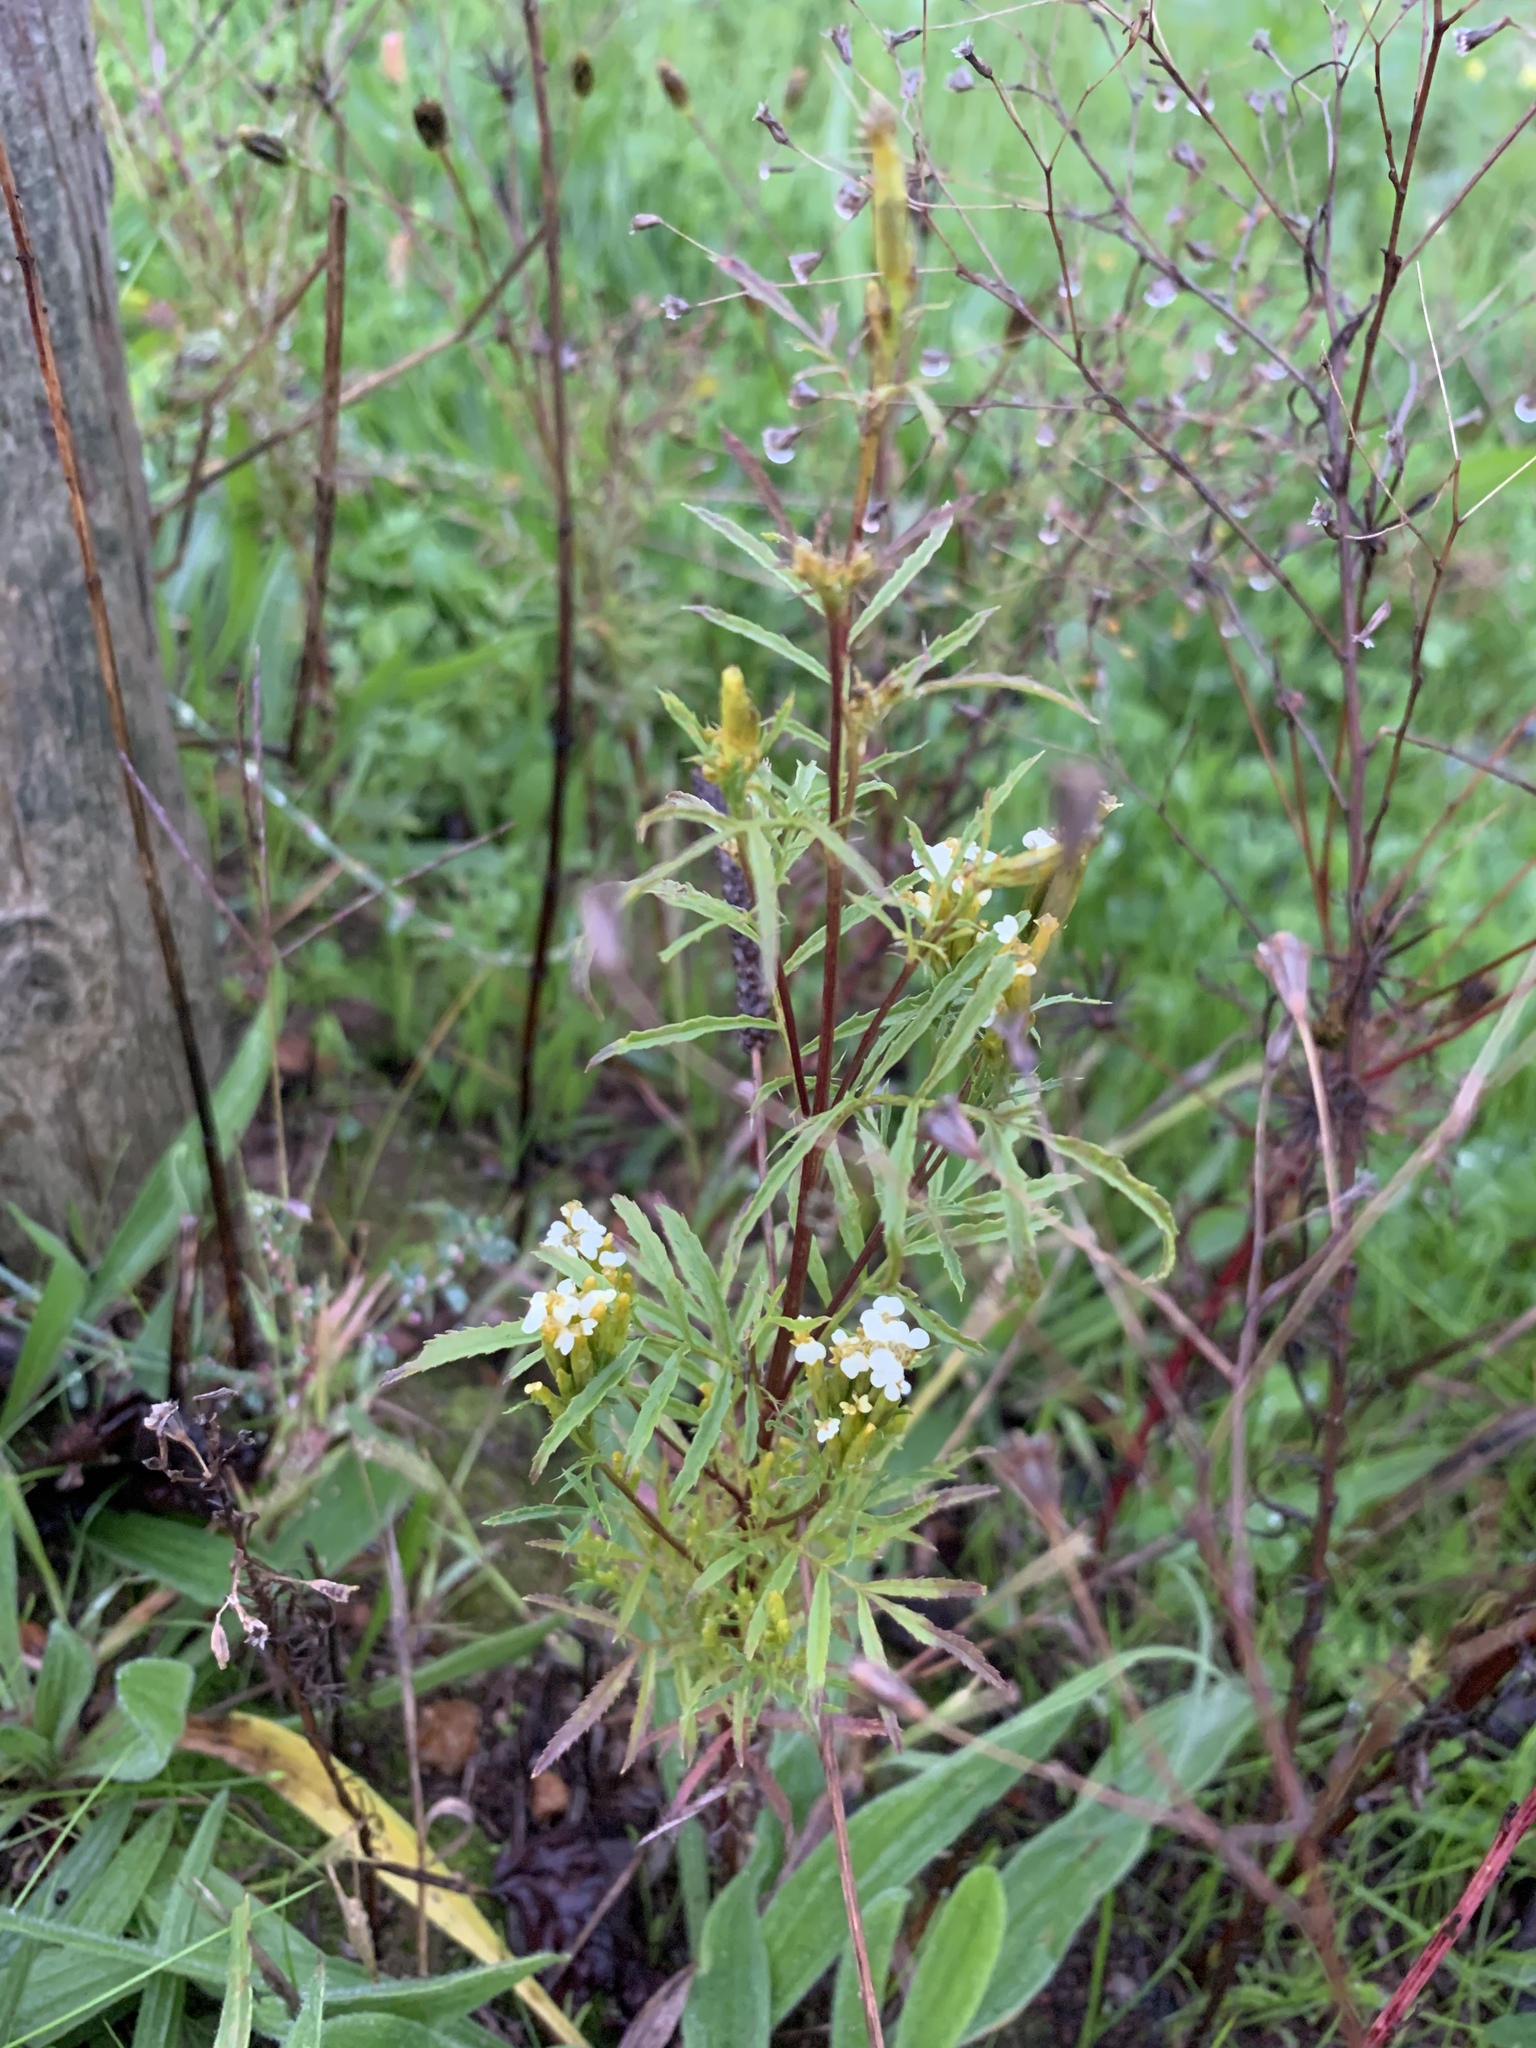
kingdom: Plantae
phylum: Tracheophyta
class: Magnoliopsida
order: Asterales
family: Asteraceae
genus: Tagetes
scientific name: Tagetes minuta
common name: Muster john henry
